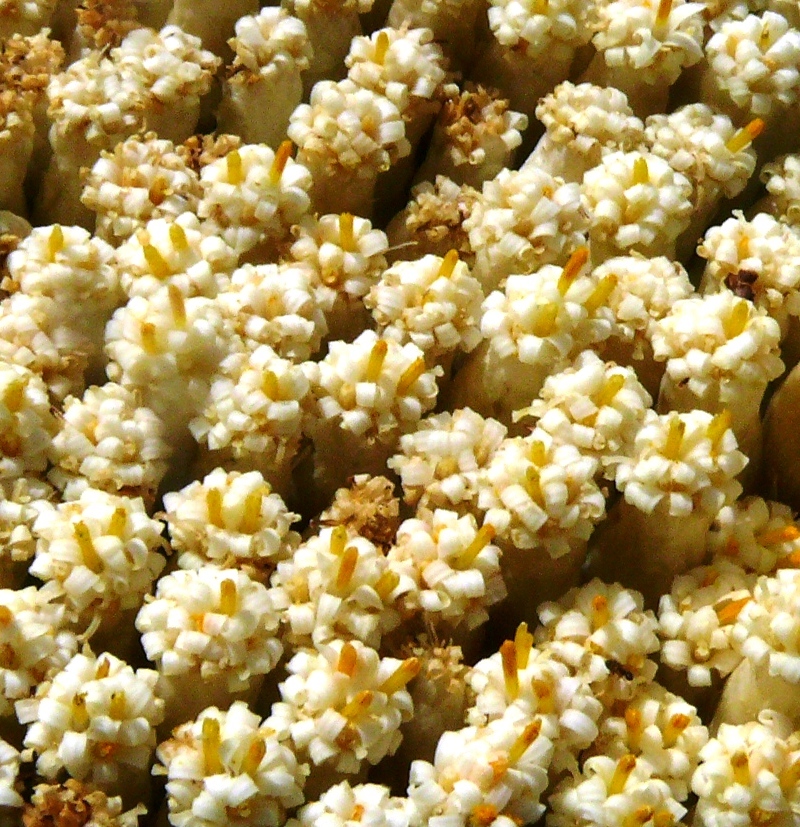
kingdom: Plantae
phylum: Tracheophyta
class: Magnoliopsida
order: Asterales
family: Asteraceae
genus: Syncarpha
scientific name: Syncarpha milleflora
